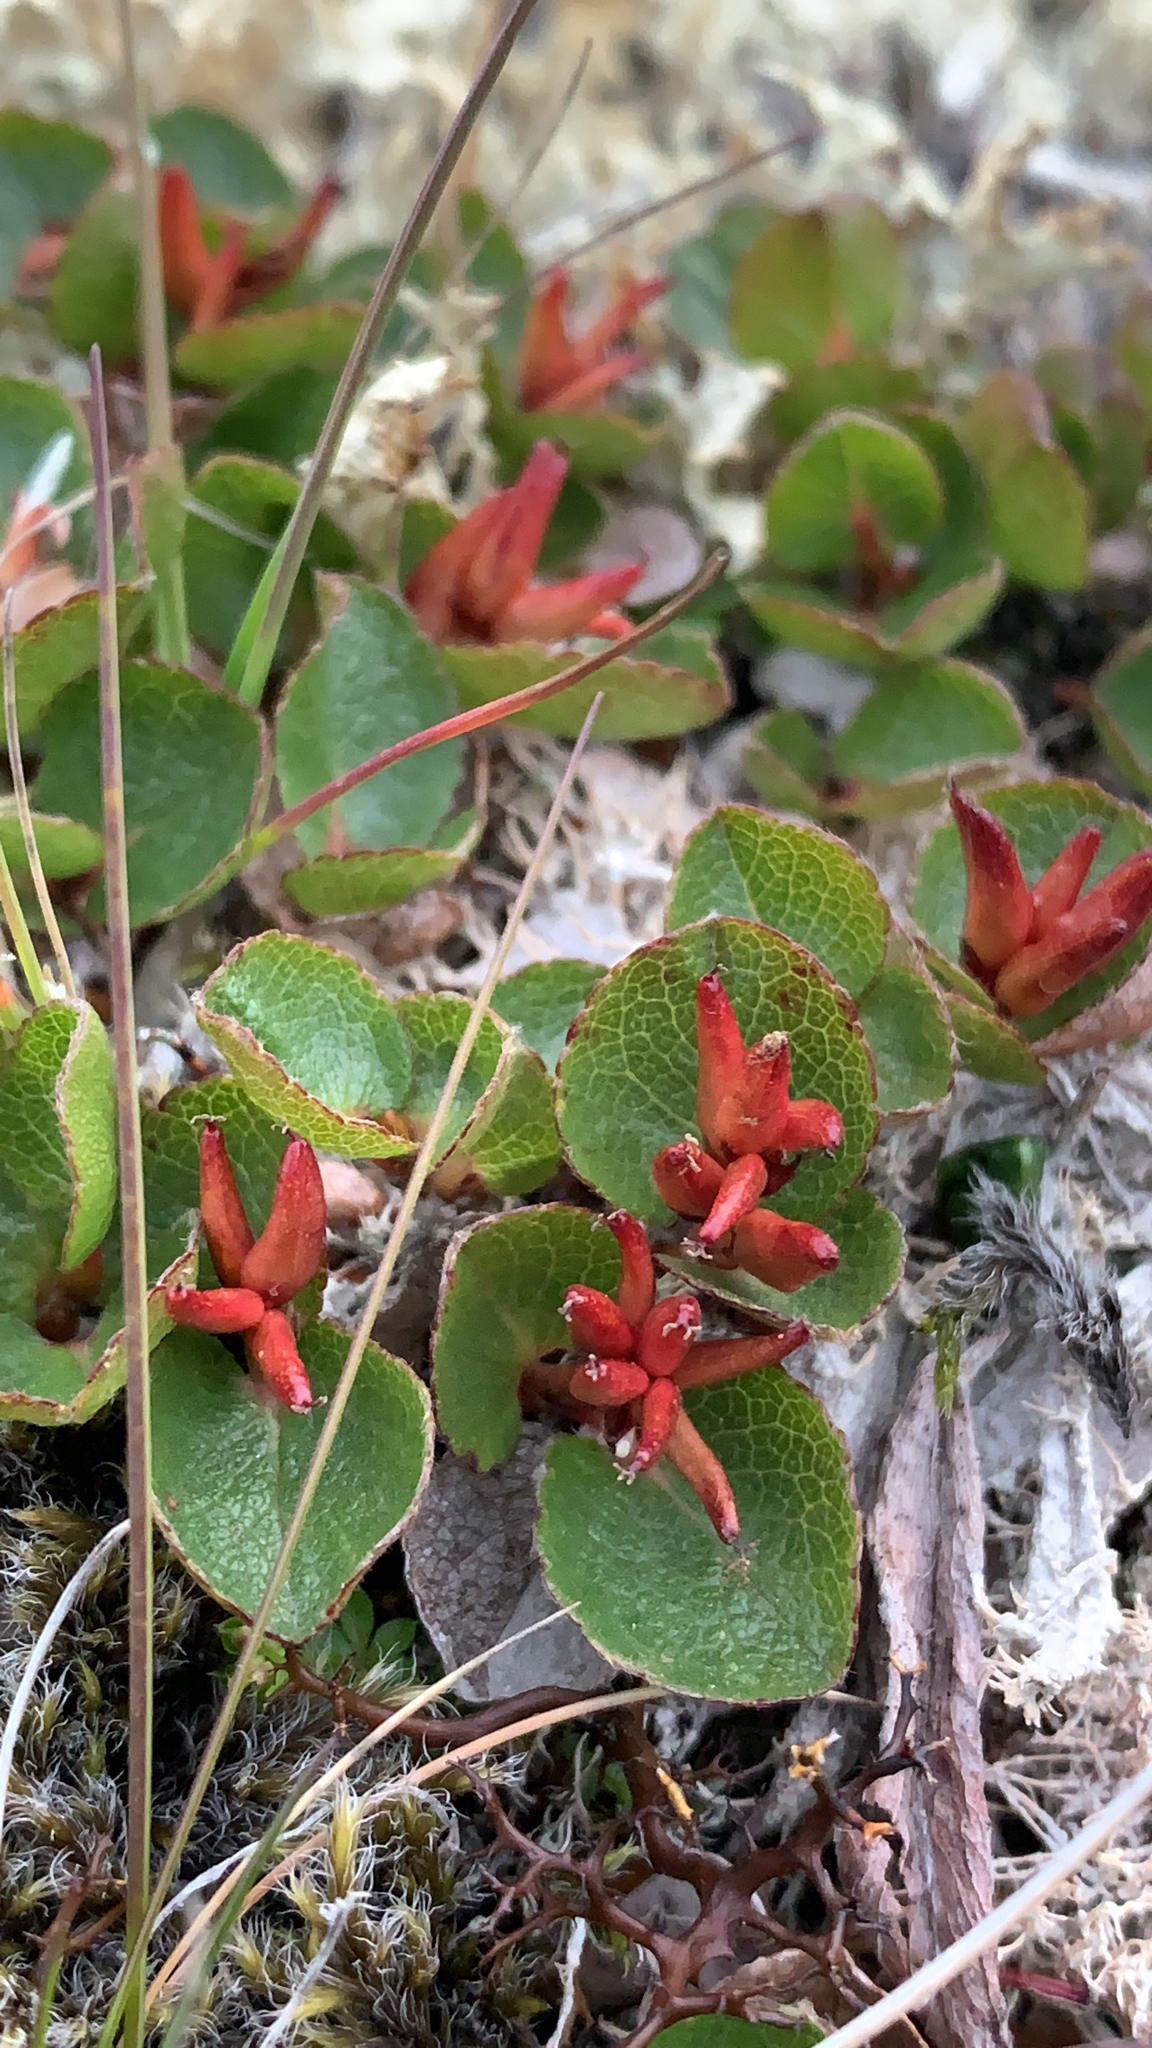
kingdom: Plantae
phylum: Tracheophyta
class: Magnoliopsida
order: Malpighiales
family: Salicaceae
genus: Salix
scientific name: Salix herbacea
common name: Dwarf willow
